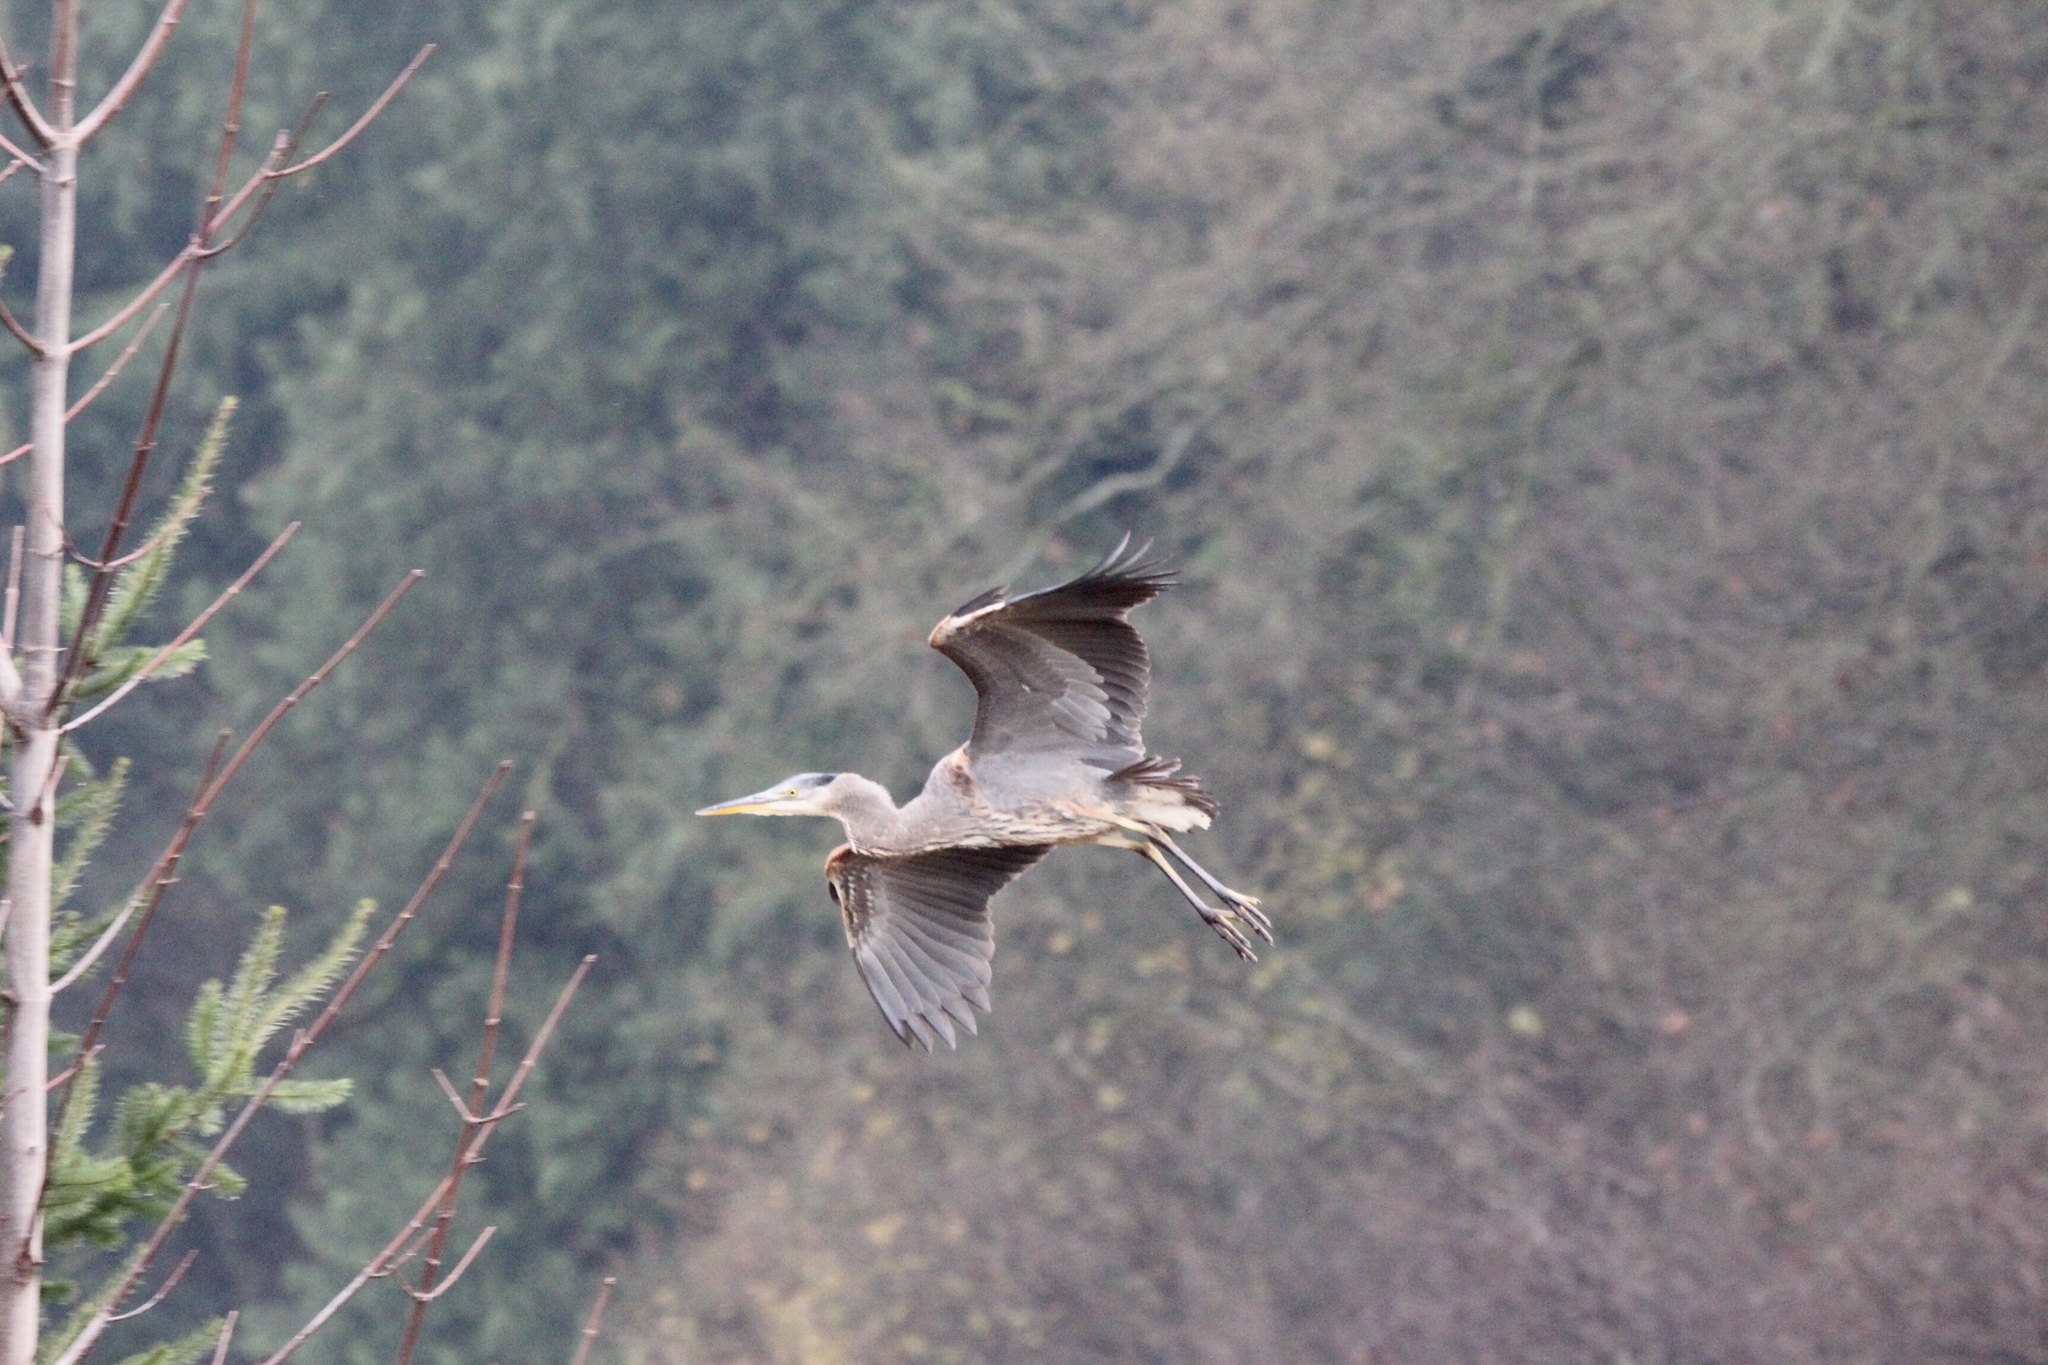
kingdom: Animalia
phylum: Chordata
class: Aves
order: Pelecaniformes
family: Ardeidae
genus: Ardea
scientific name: Ardea herodias
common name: Great blue heron
